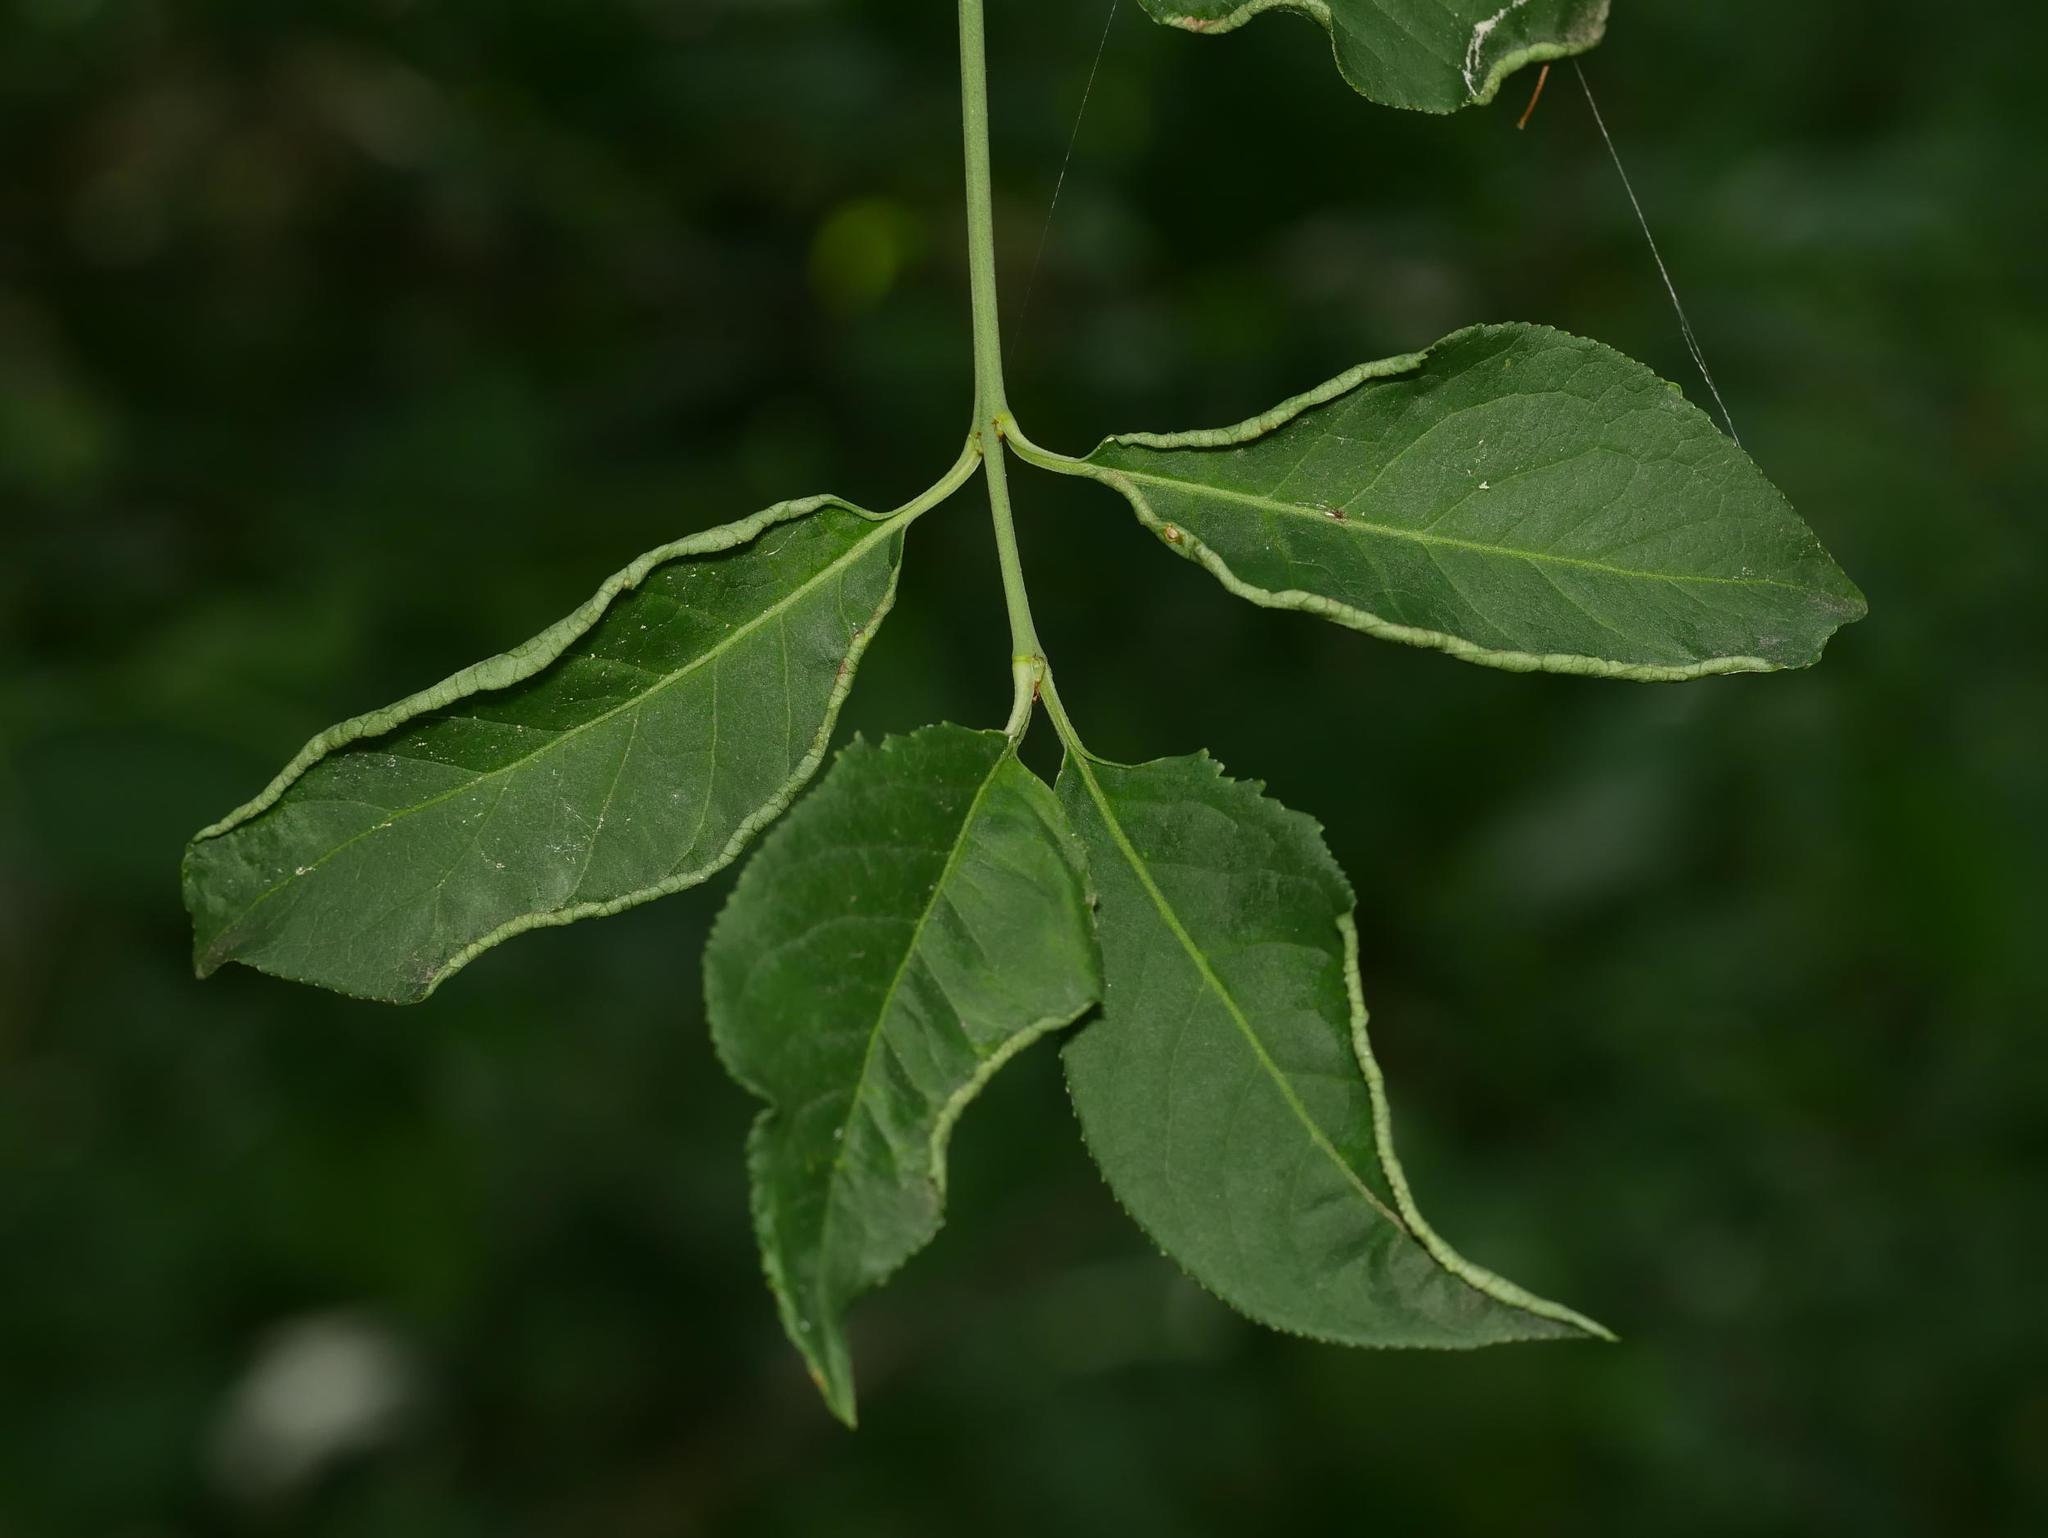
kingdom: Plantae
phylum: Tracheophyta
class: Magnoliopsida
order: Celastrales
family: Celastraceae
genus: Euonymus
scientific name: Euonymus europaeus
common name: Spindle
